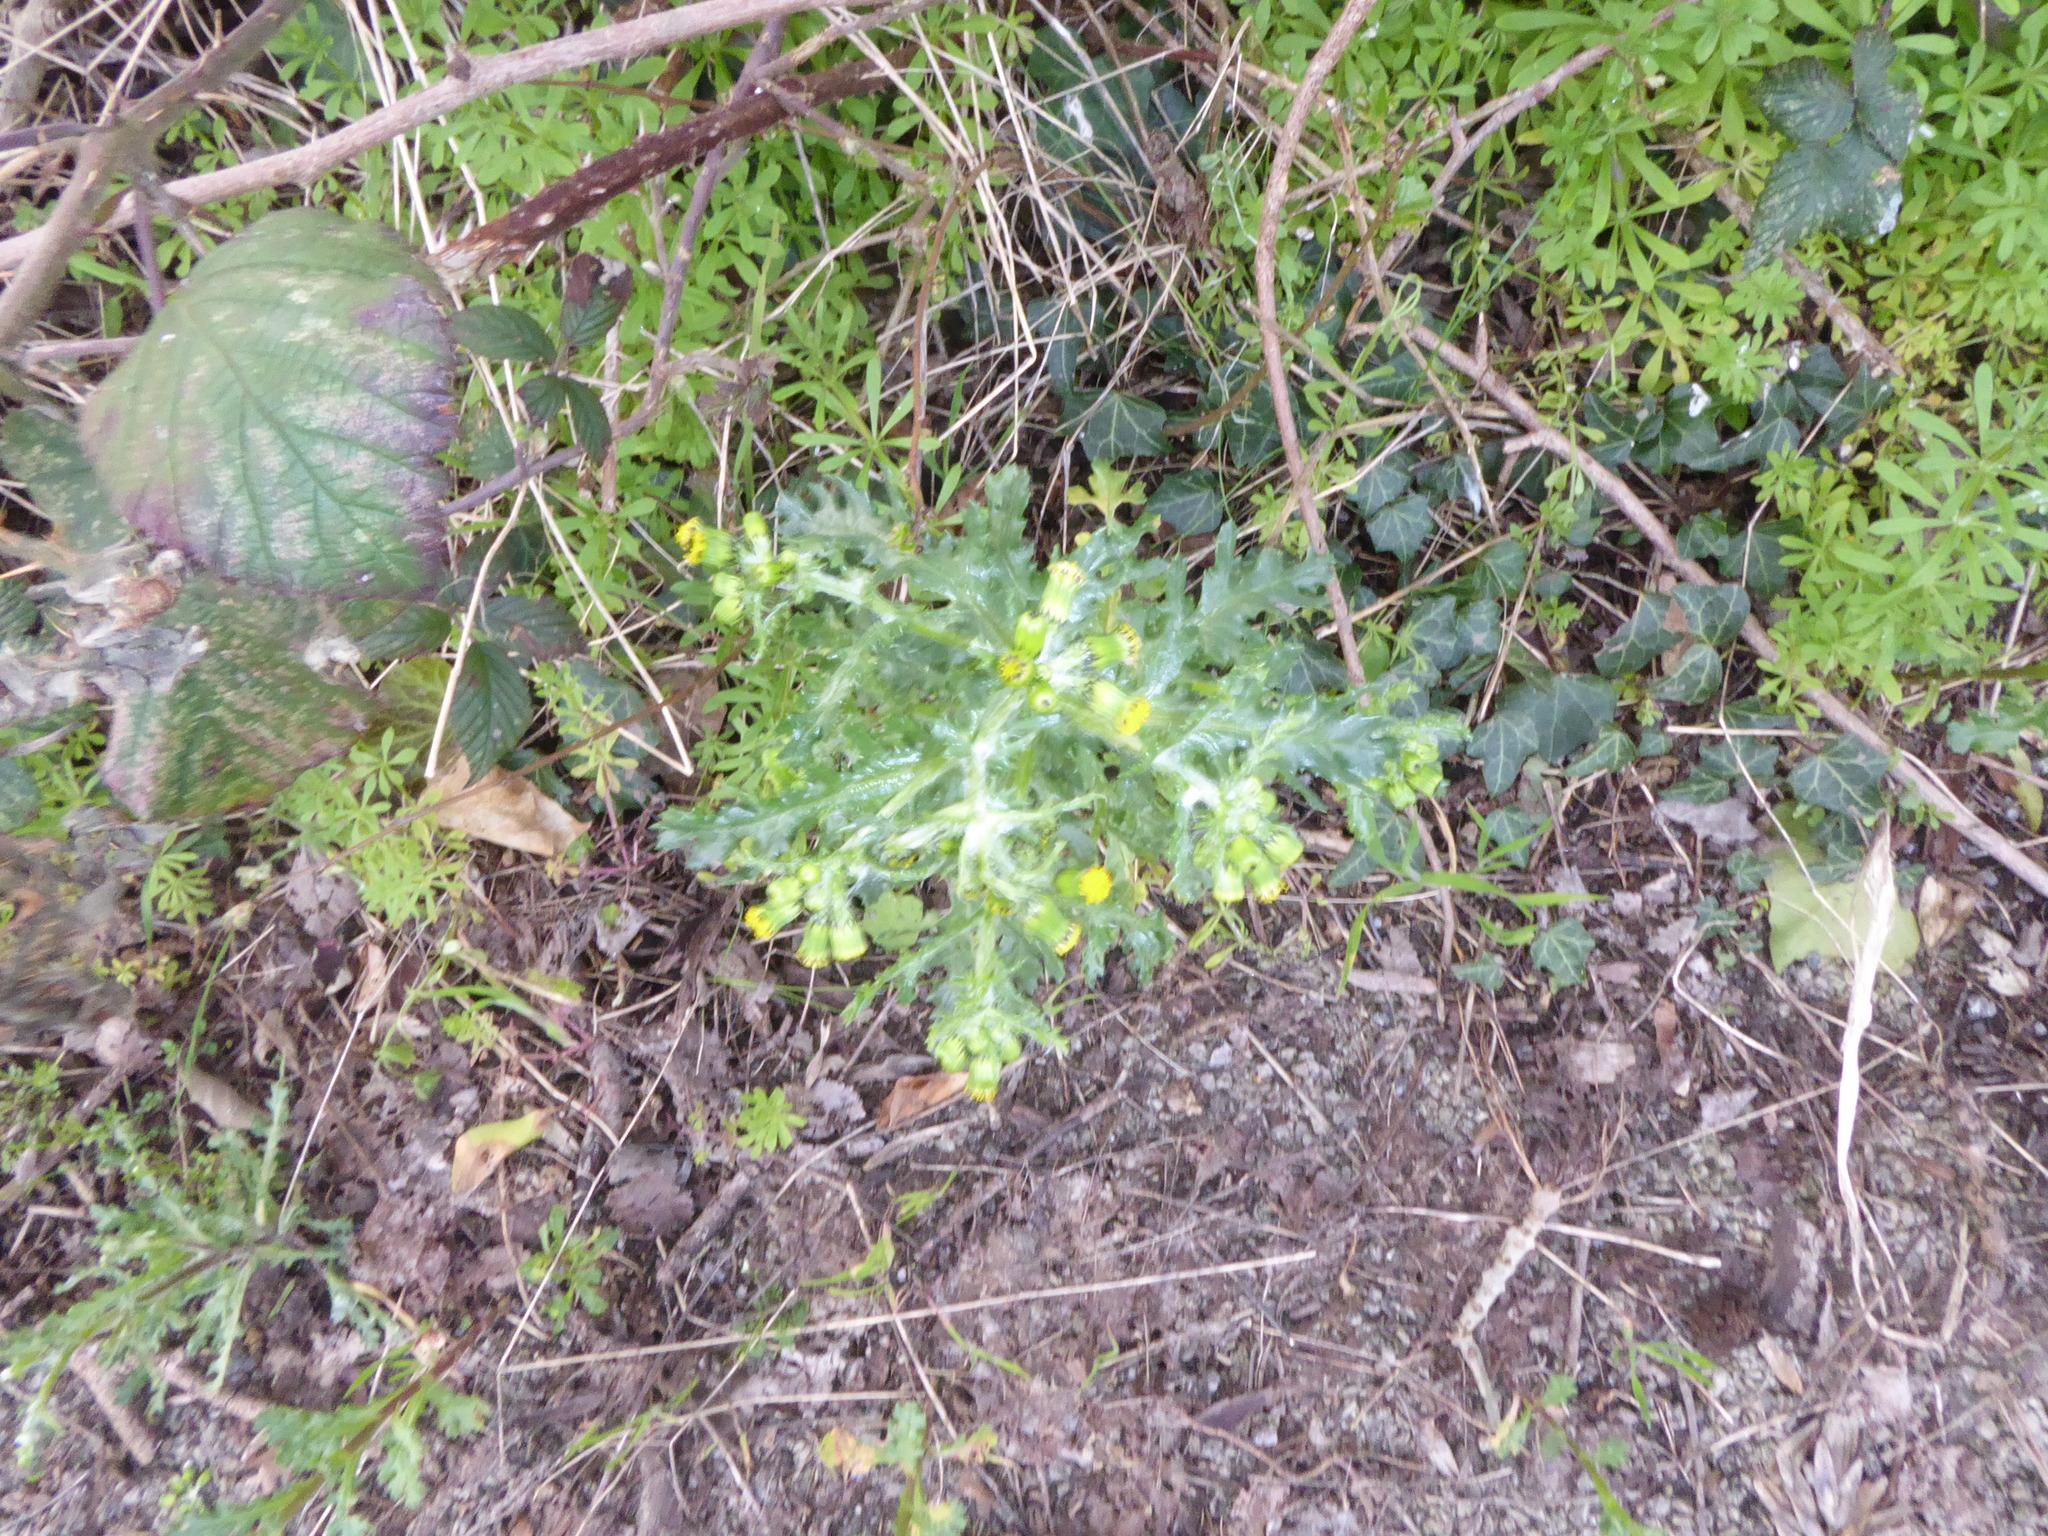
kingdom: Plantae
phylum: Tracheophyta
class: Magnoliopsida
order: Asterales
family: Asteraceae
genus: Senecio
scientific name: Senecio vulgaris
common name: Old-man-in-the-spring
